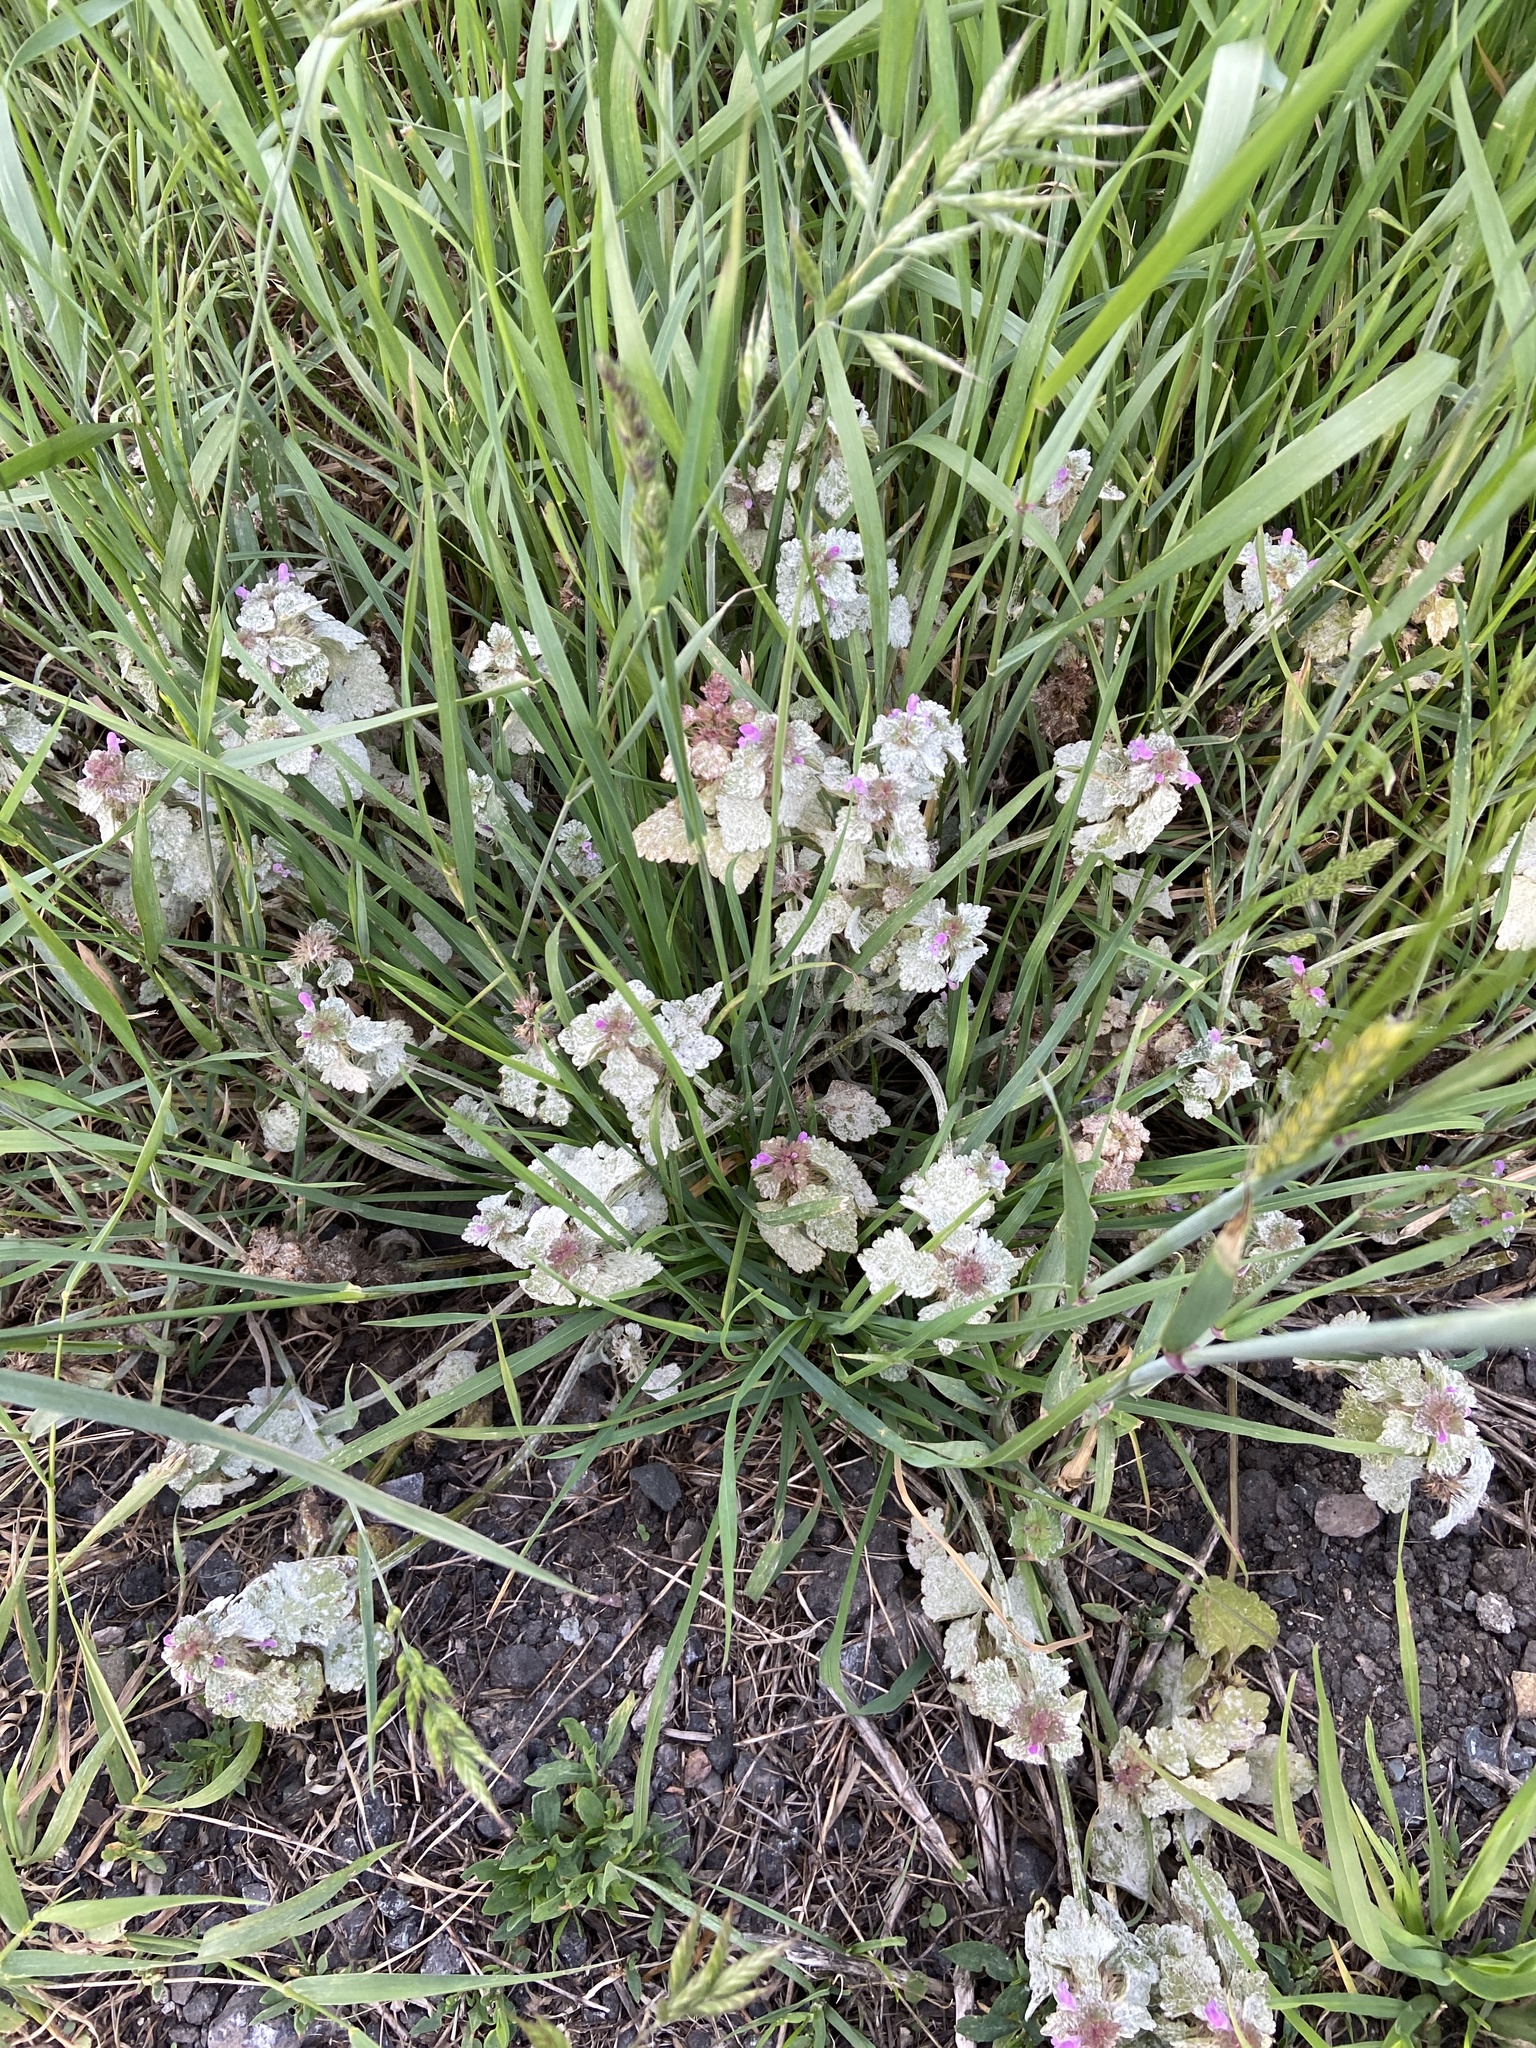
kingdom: Plantae
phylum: Tracheophyta
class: Magnoliopsida
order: Lamiales
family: Lamiaceae
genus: Lamium
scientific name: Lamium purpureum
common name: Red dead-nettle
